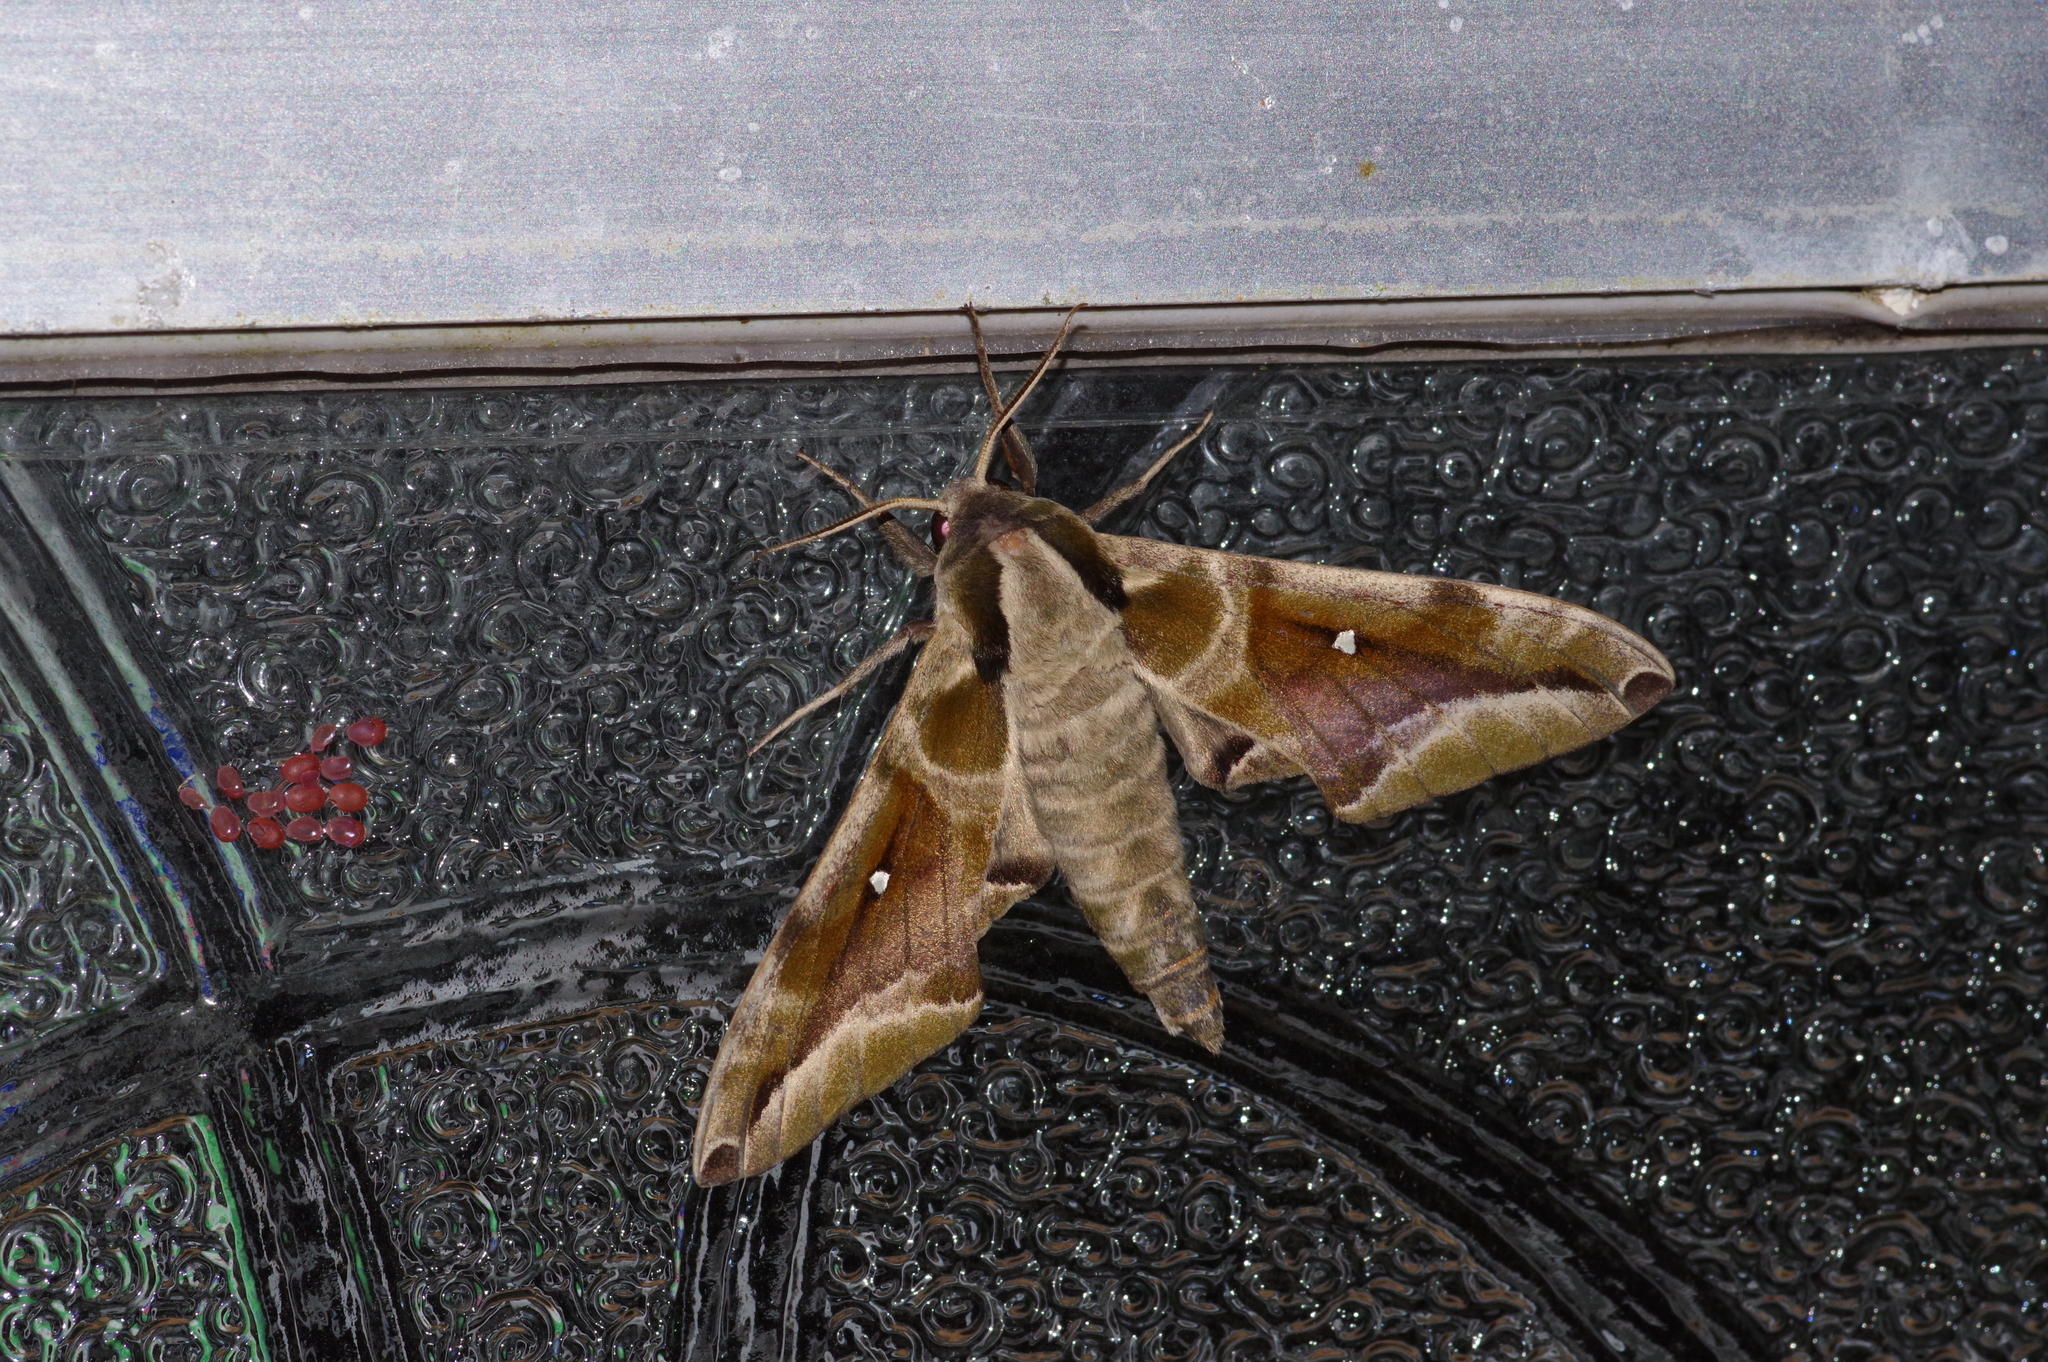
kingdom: Animalia
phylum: Arthropoda
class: Insecta
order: Lepidoptera
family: Sphingidae
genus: Parum
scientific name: Parum colligata
